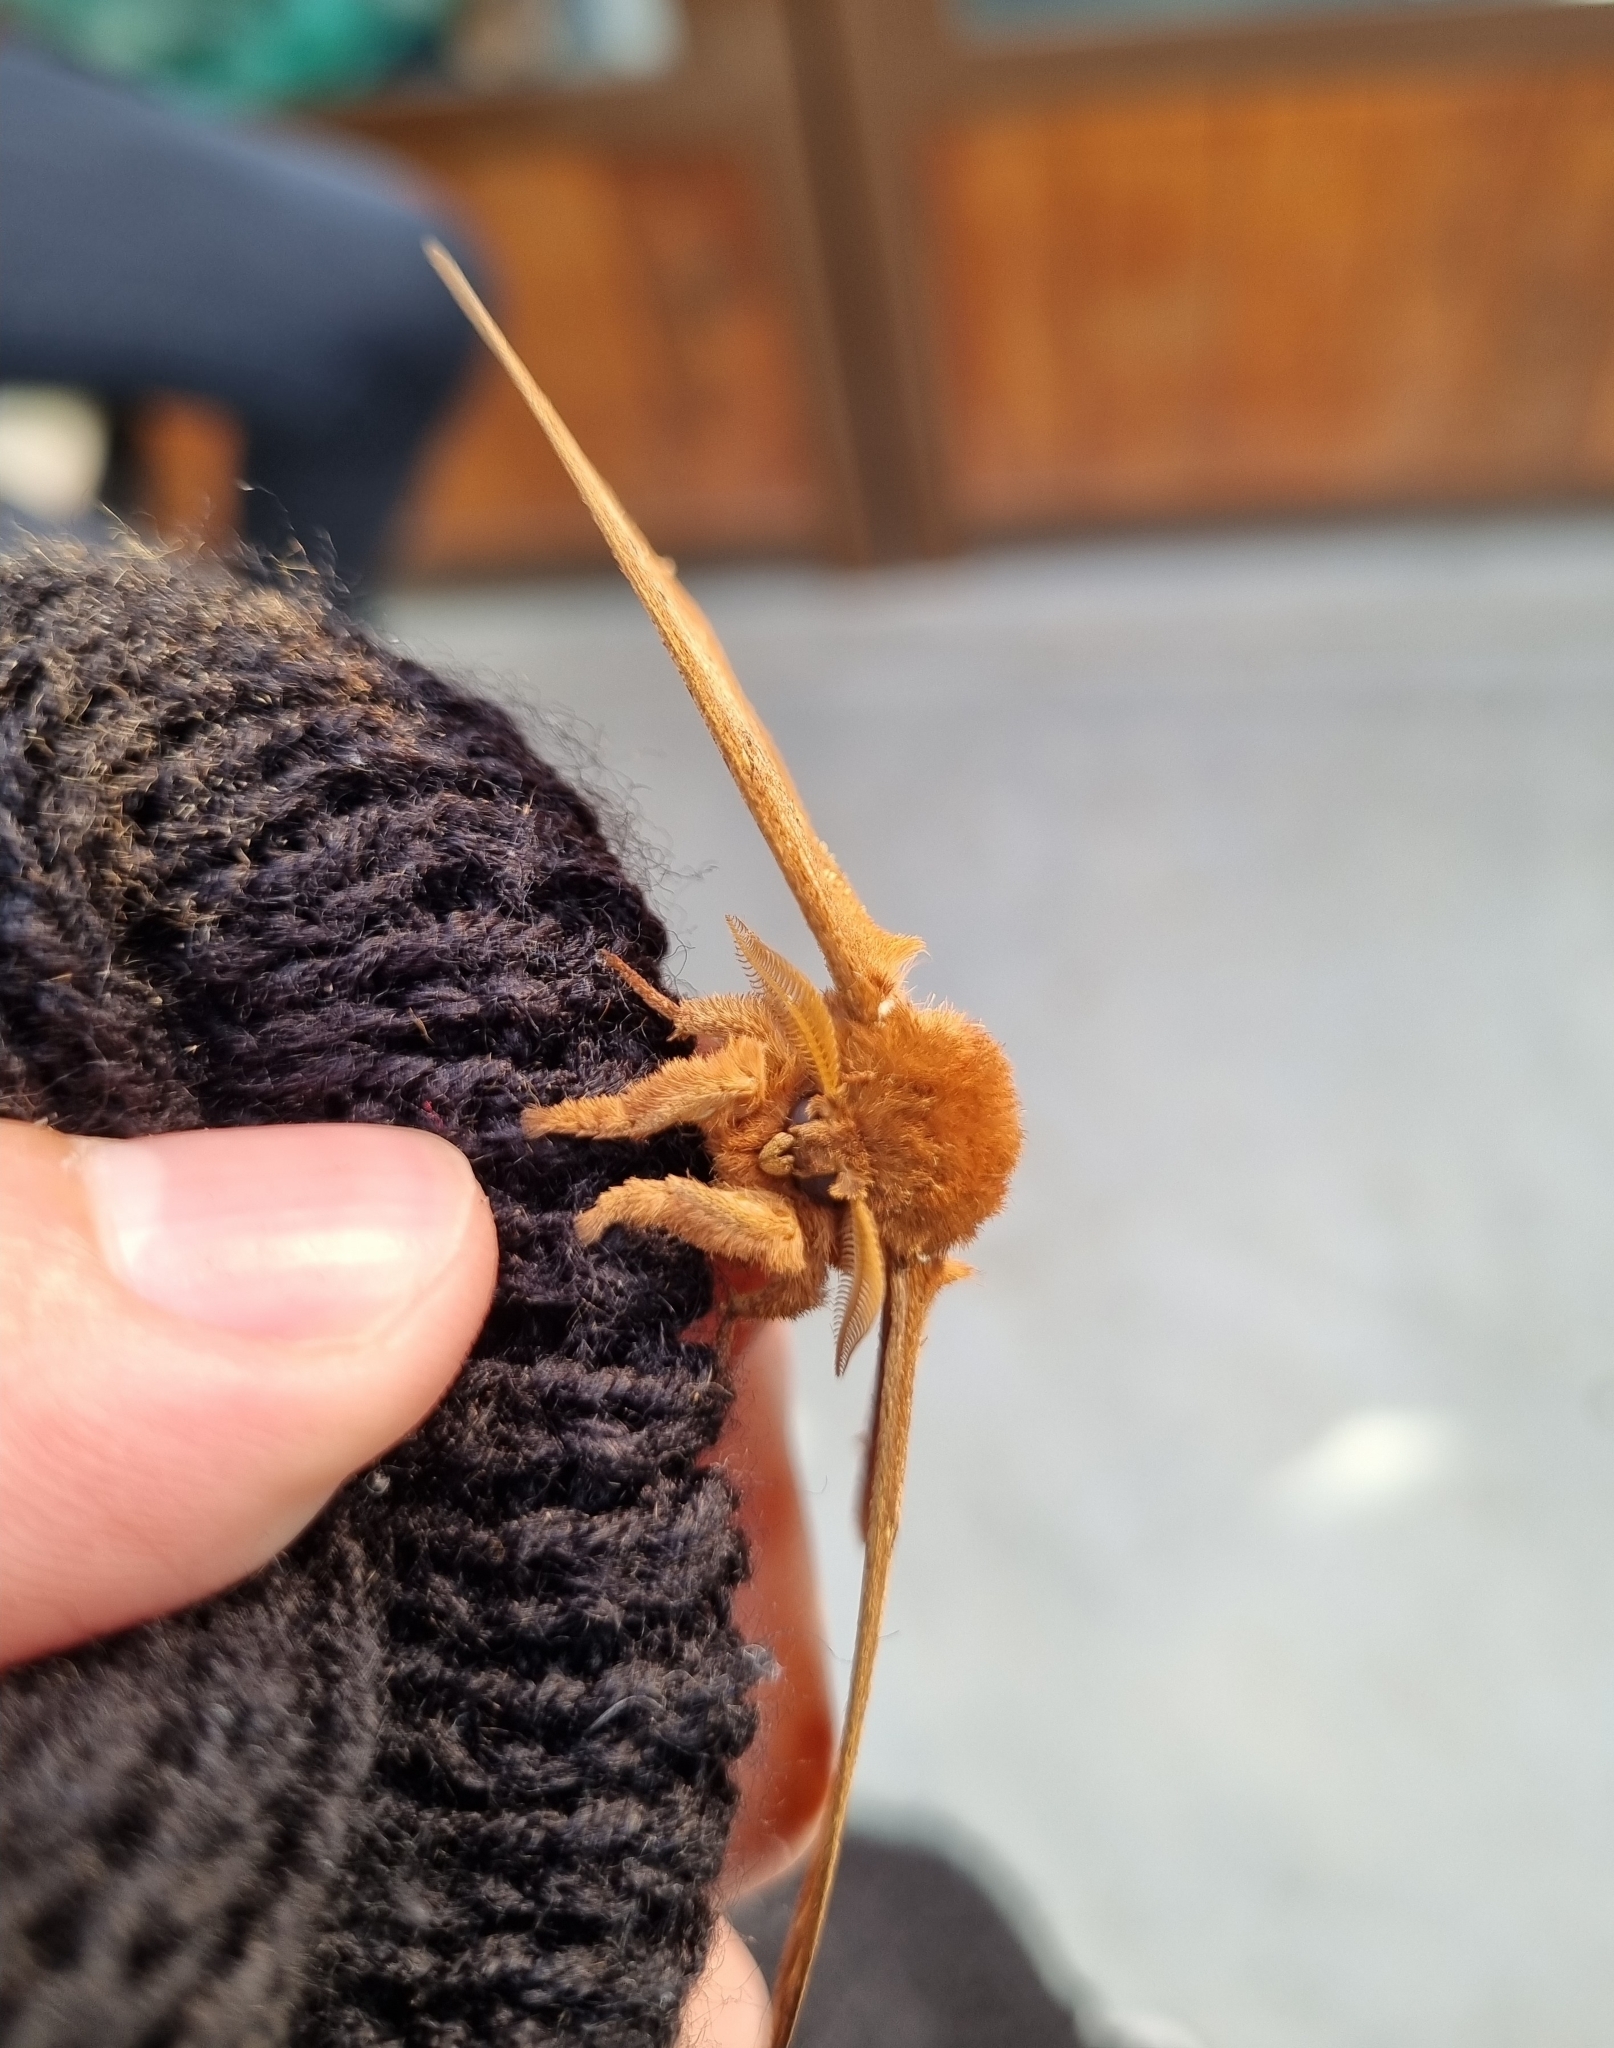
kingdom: Animalia
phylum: Arthropoda
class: Insecta
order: Lepidoptera
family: Saturniidae
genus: Pseudautomeris
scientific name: Pseudautomeris luteata
